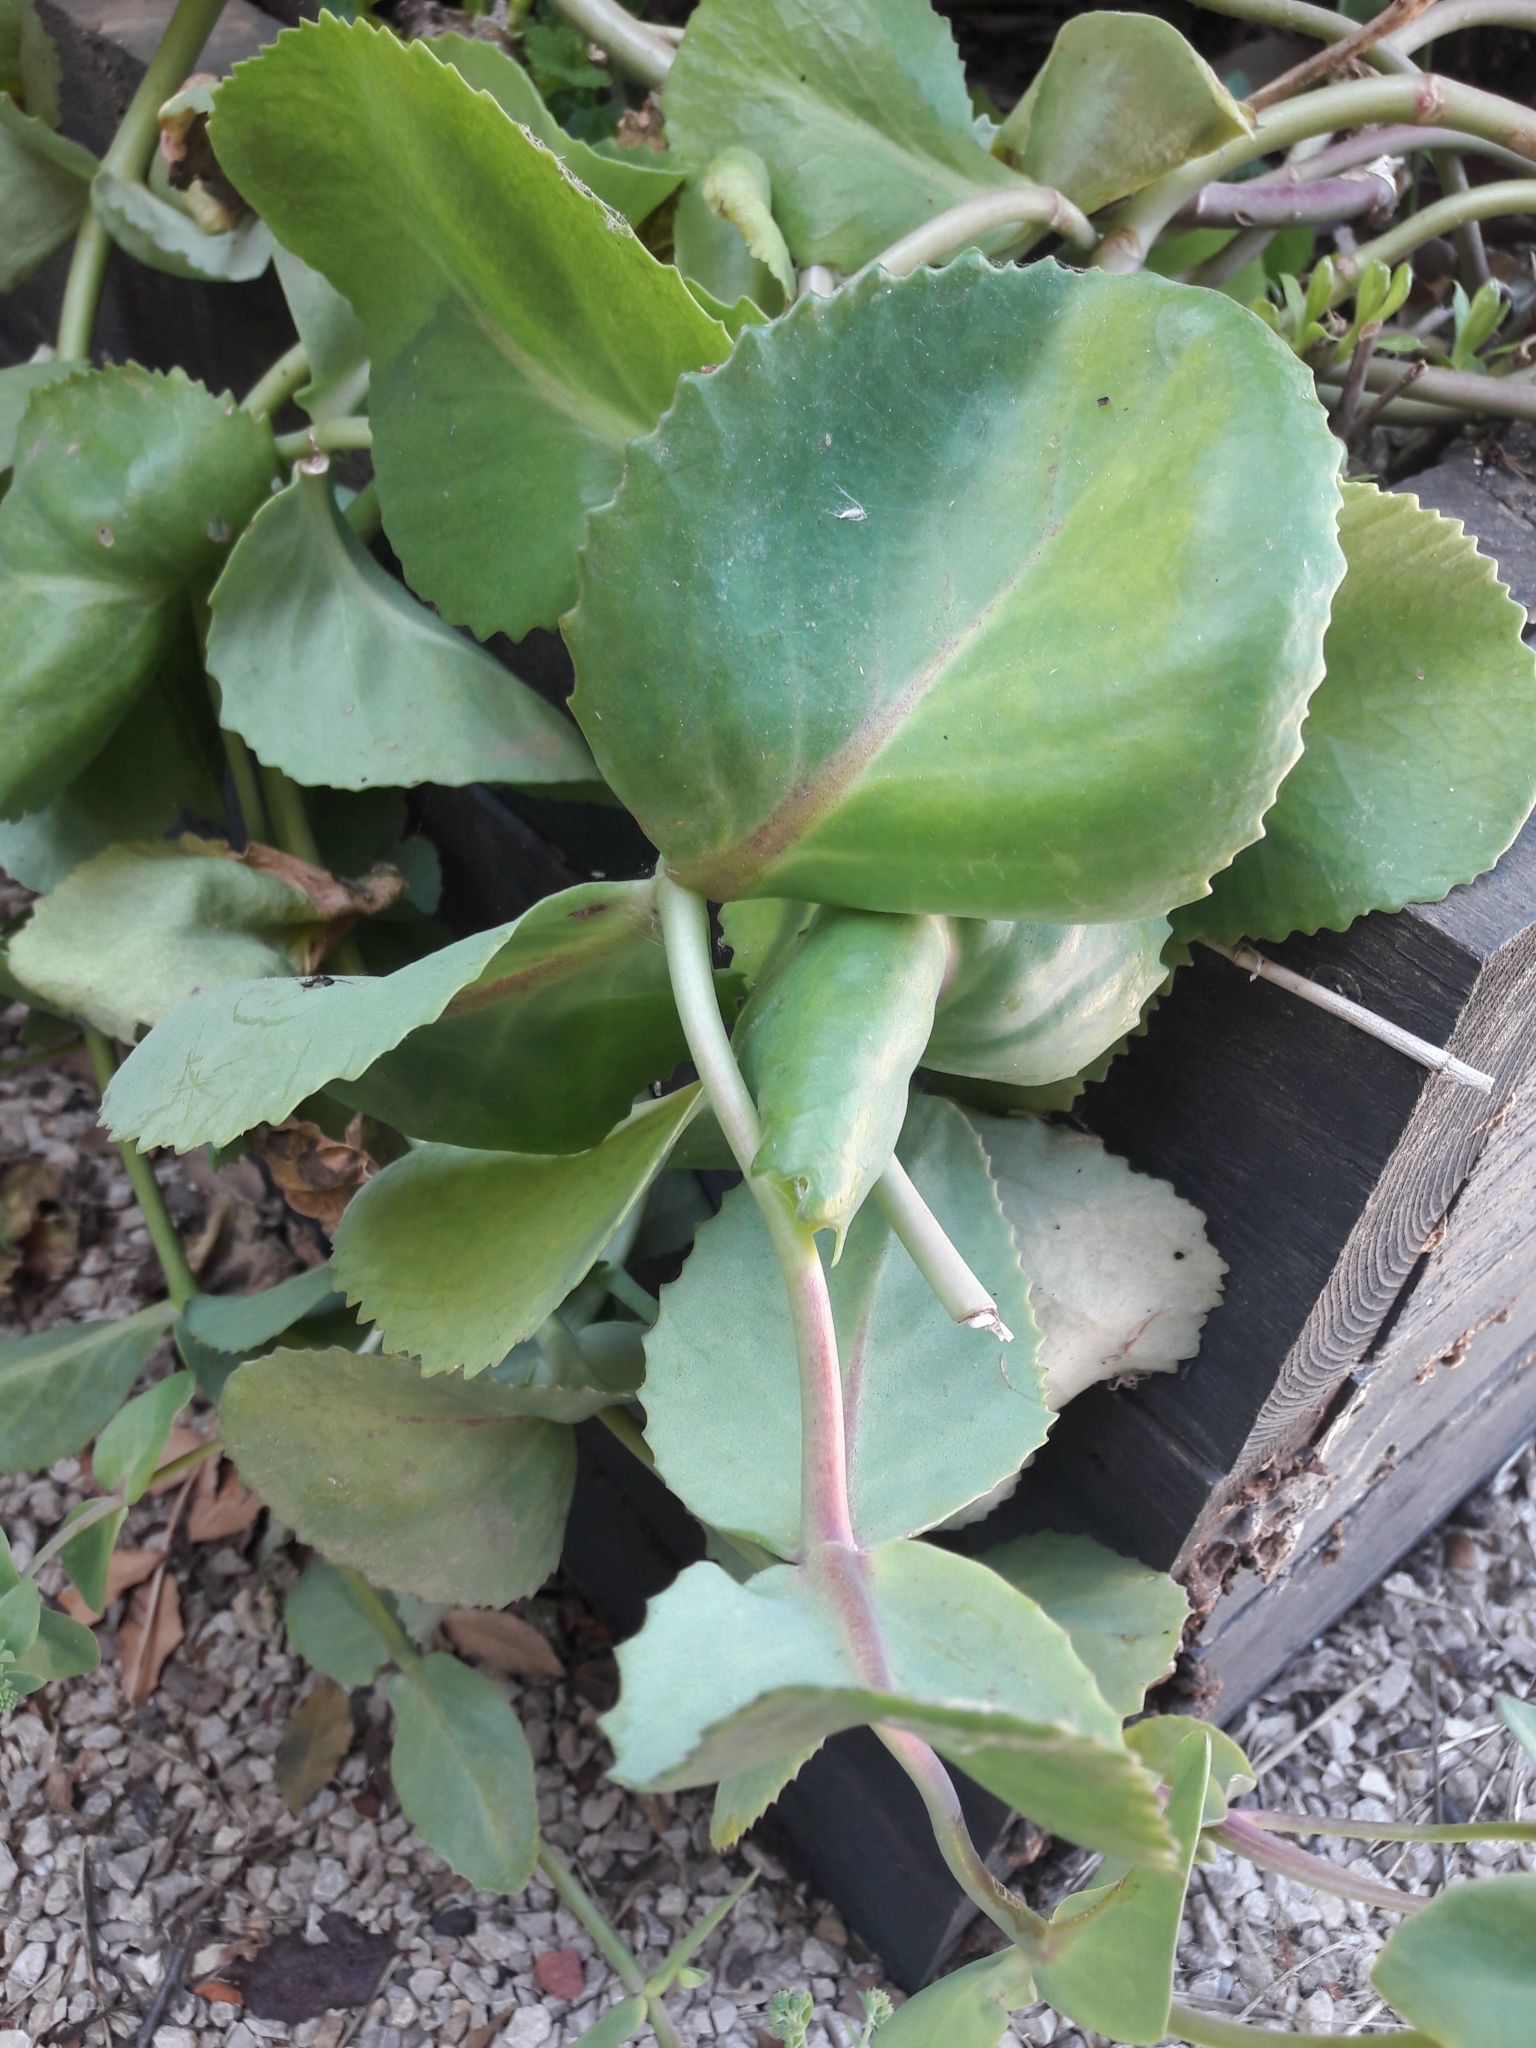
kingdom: Plantae
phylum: Tracheophyta
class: Magnoliopsida
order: Saxifragales
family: Crassulaceae
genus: Hylotelephium
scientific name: Hylotelephium maximum
